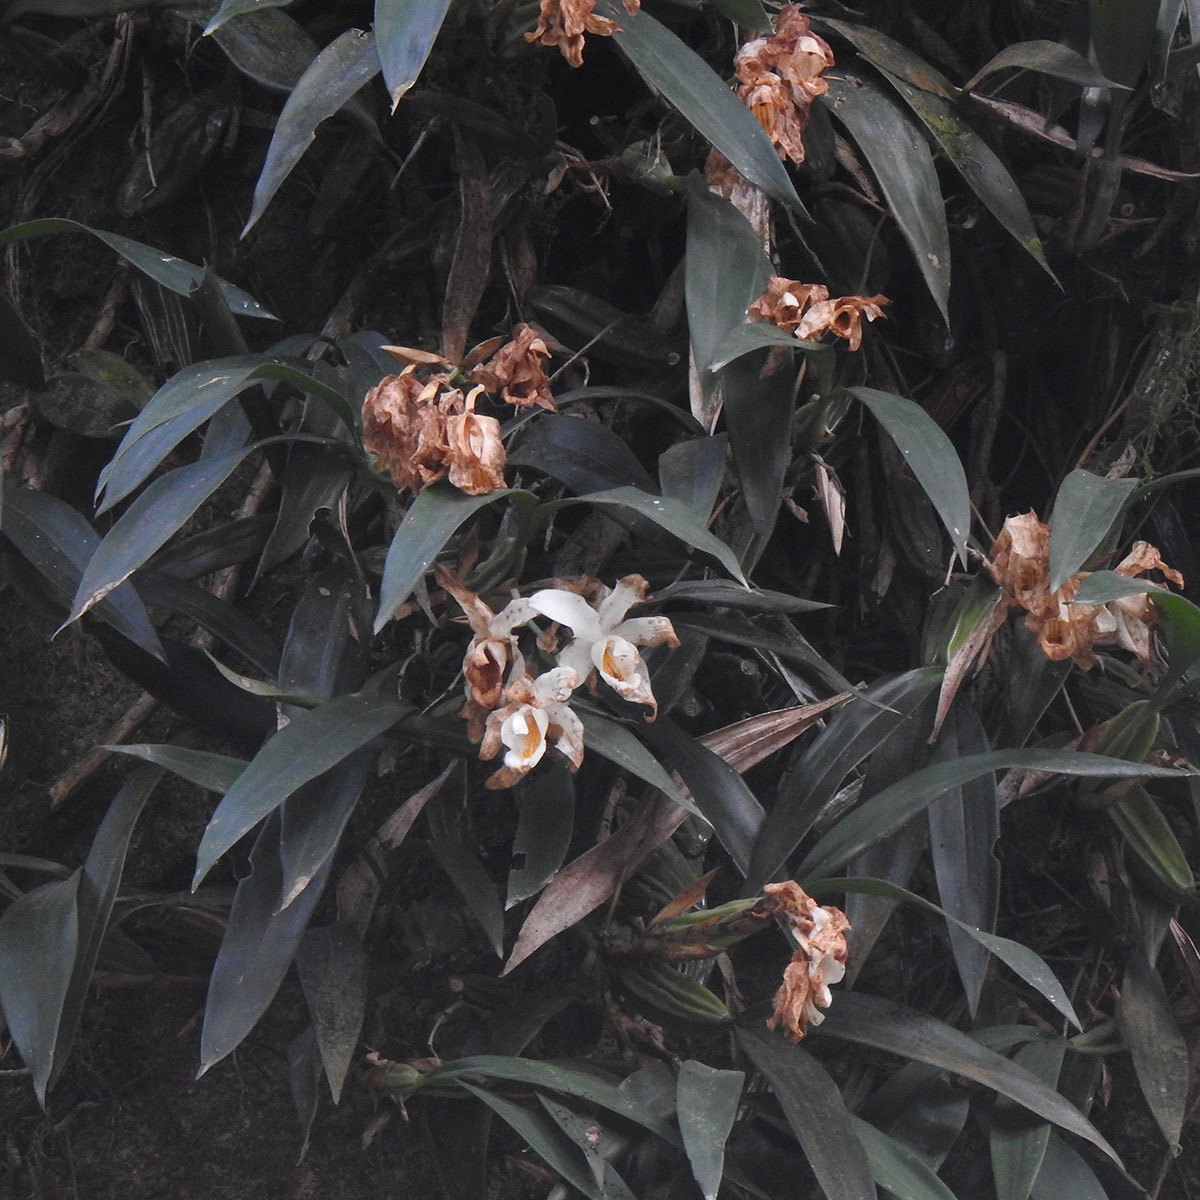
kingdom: Plantae
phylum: Tracheophyta
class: Liliopsida
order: Asparagales
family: Orchidaceae
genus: Coelogyne
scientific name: Coelogyne cristata
